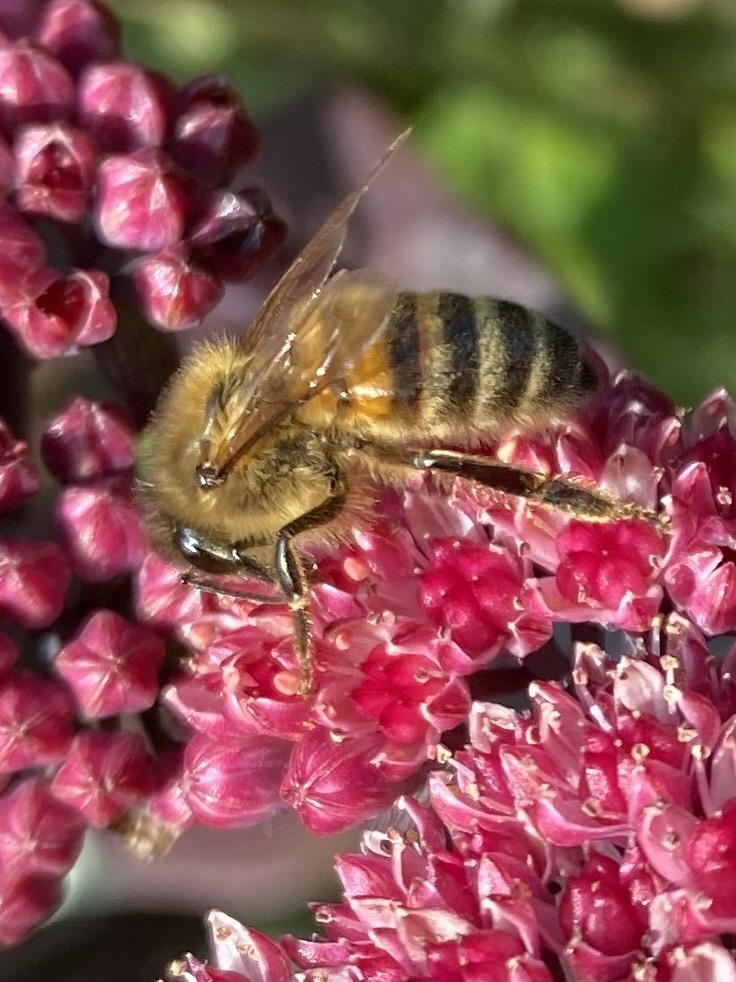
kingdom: Animalia
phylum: Arthropoda
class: Insecta
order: Hymenoptera
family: Apidae
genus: Apis
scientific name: Apis mellifera
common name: Honey bee
